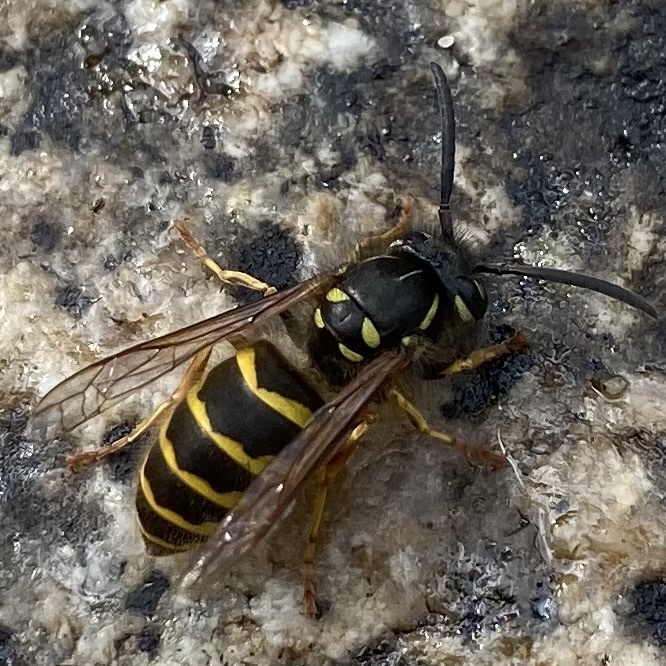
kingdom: Animalia
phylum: Arthropoda
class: Insecta
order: Hymenoptera
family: Vespidae
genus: Vespula
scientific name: Vespula vulgaris
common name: Common wasp
